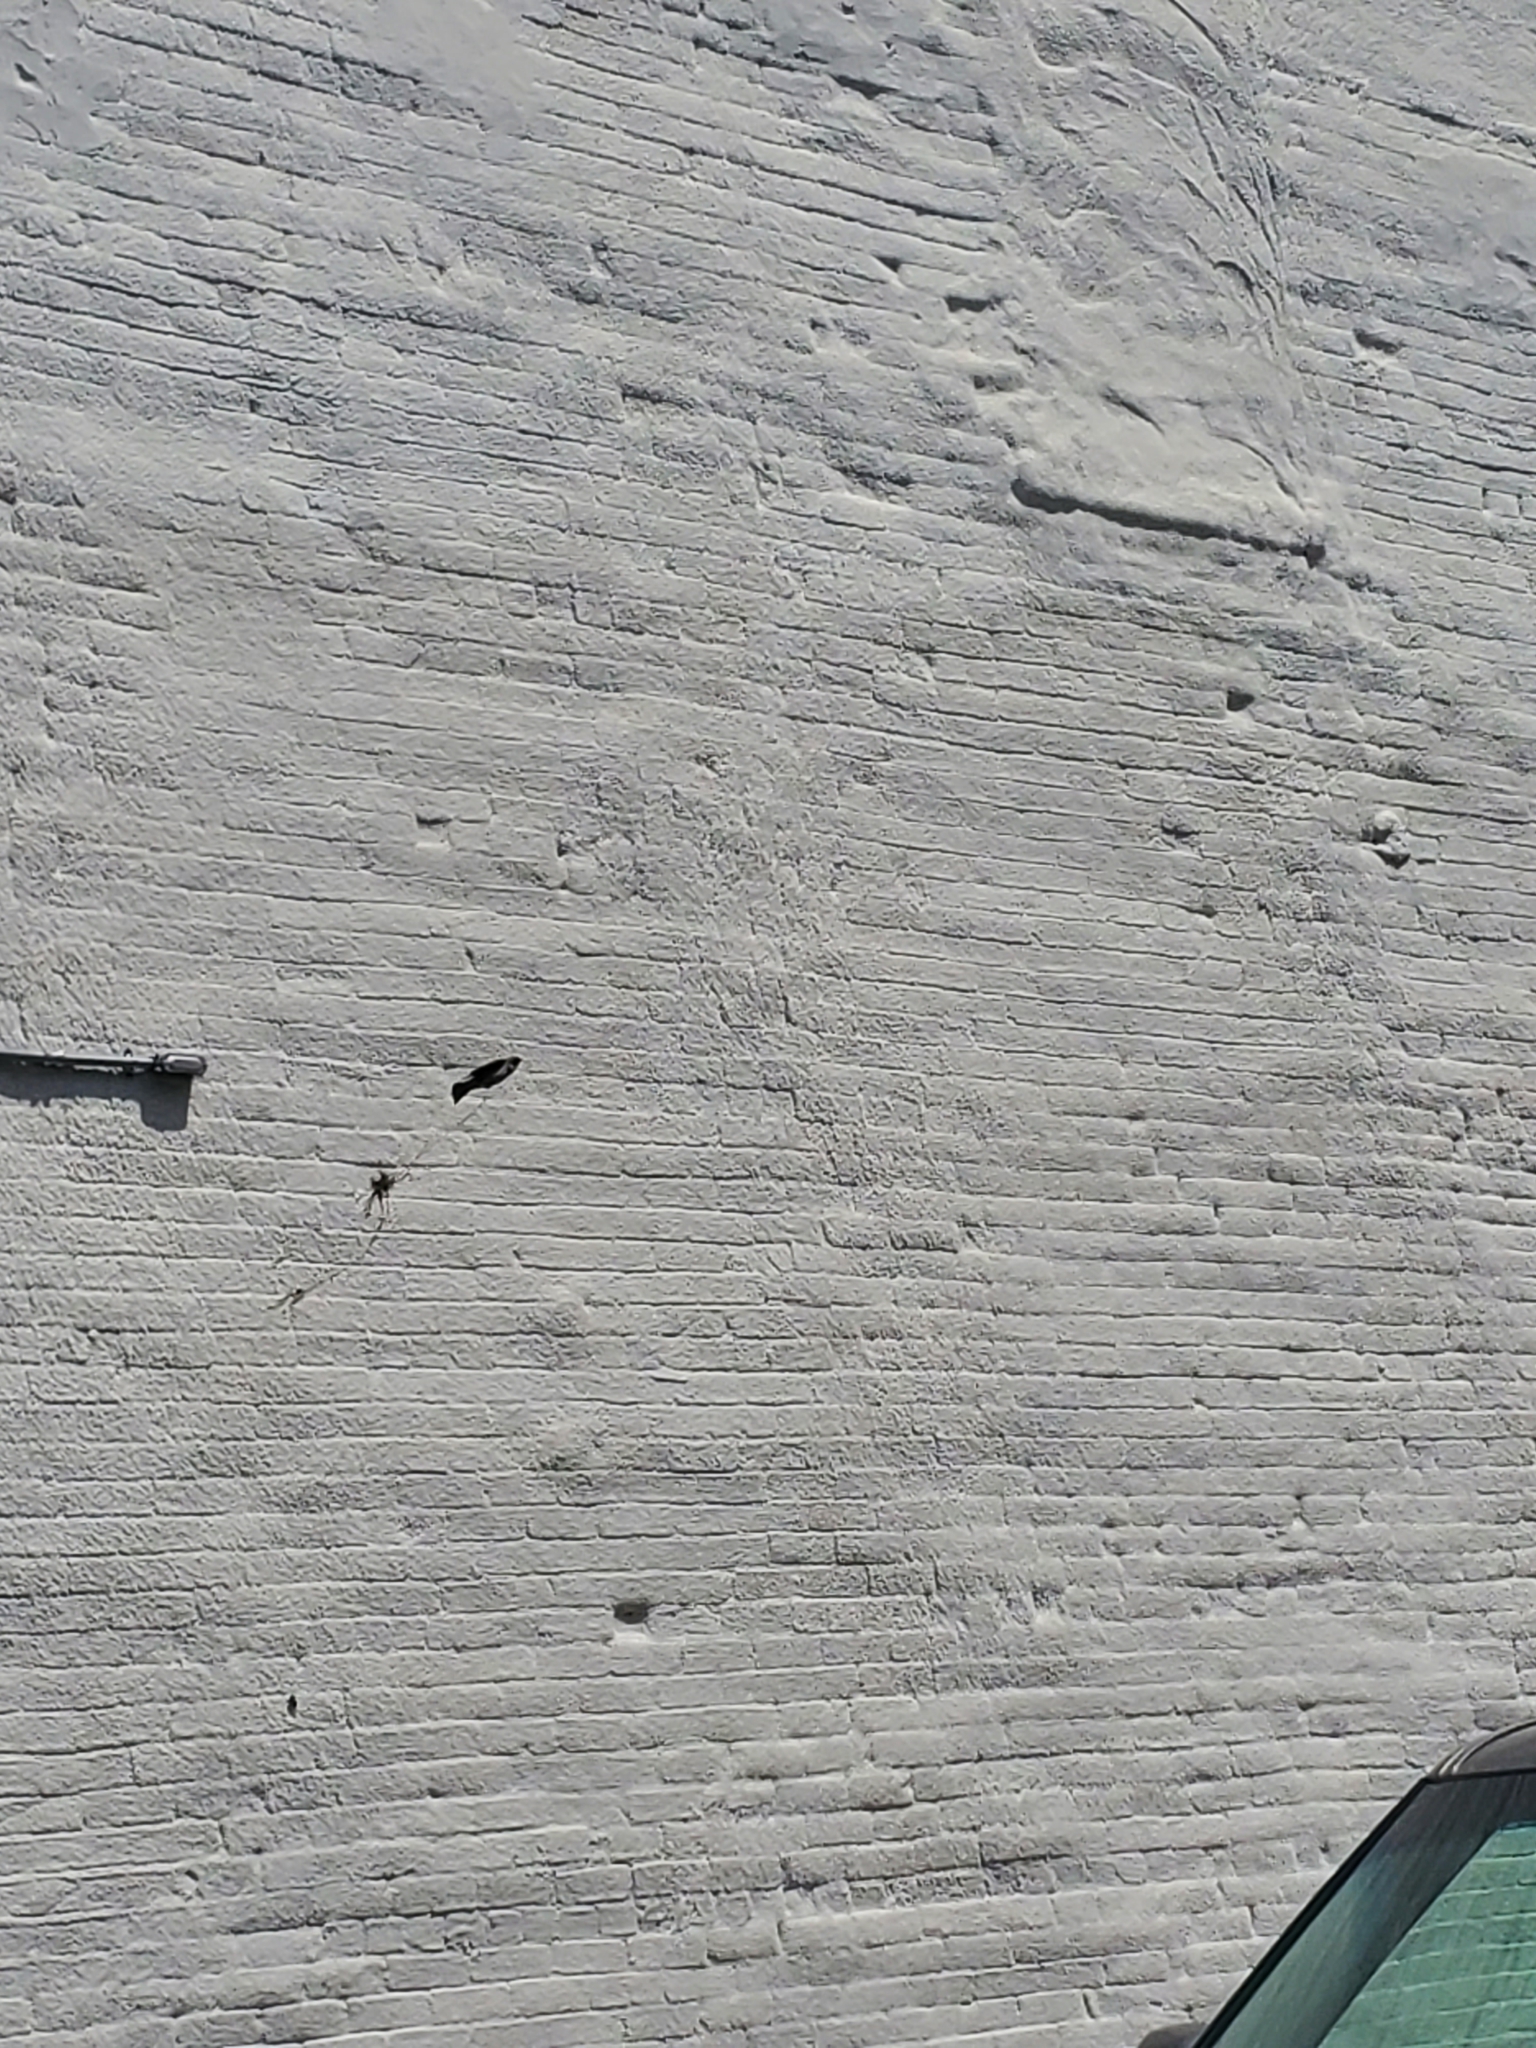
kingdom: Animalia
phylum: Chordata
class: Aves
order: Passeriformes
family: Passeridae
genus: Passer
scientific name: Passer domesticus
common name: House sparrow
